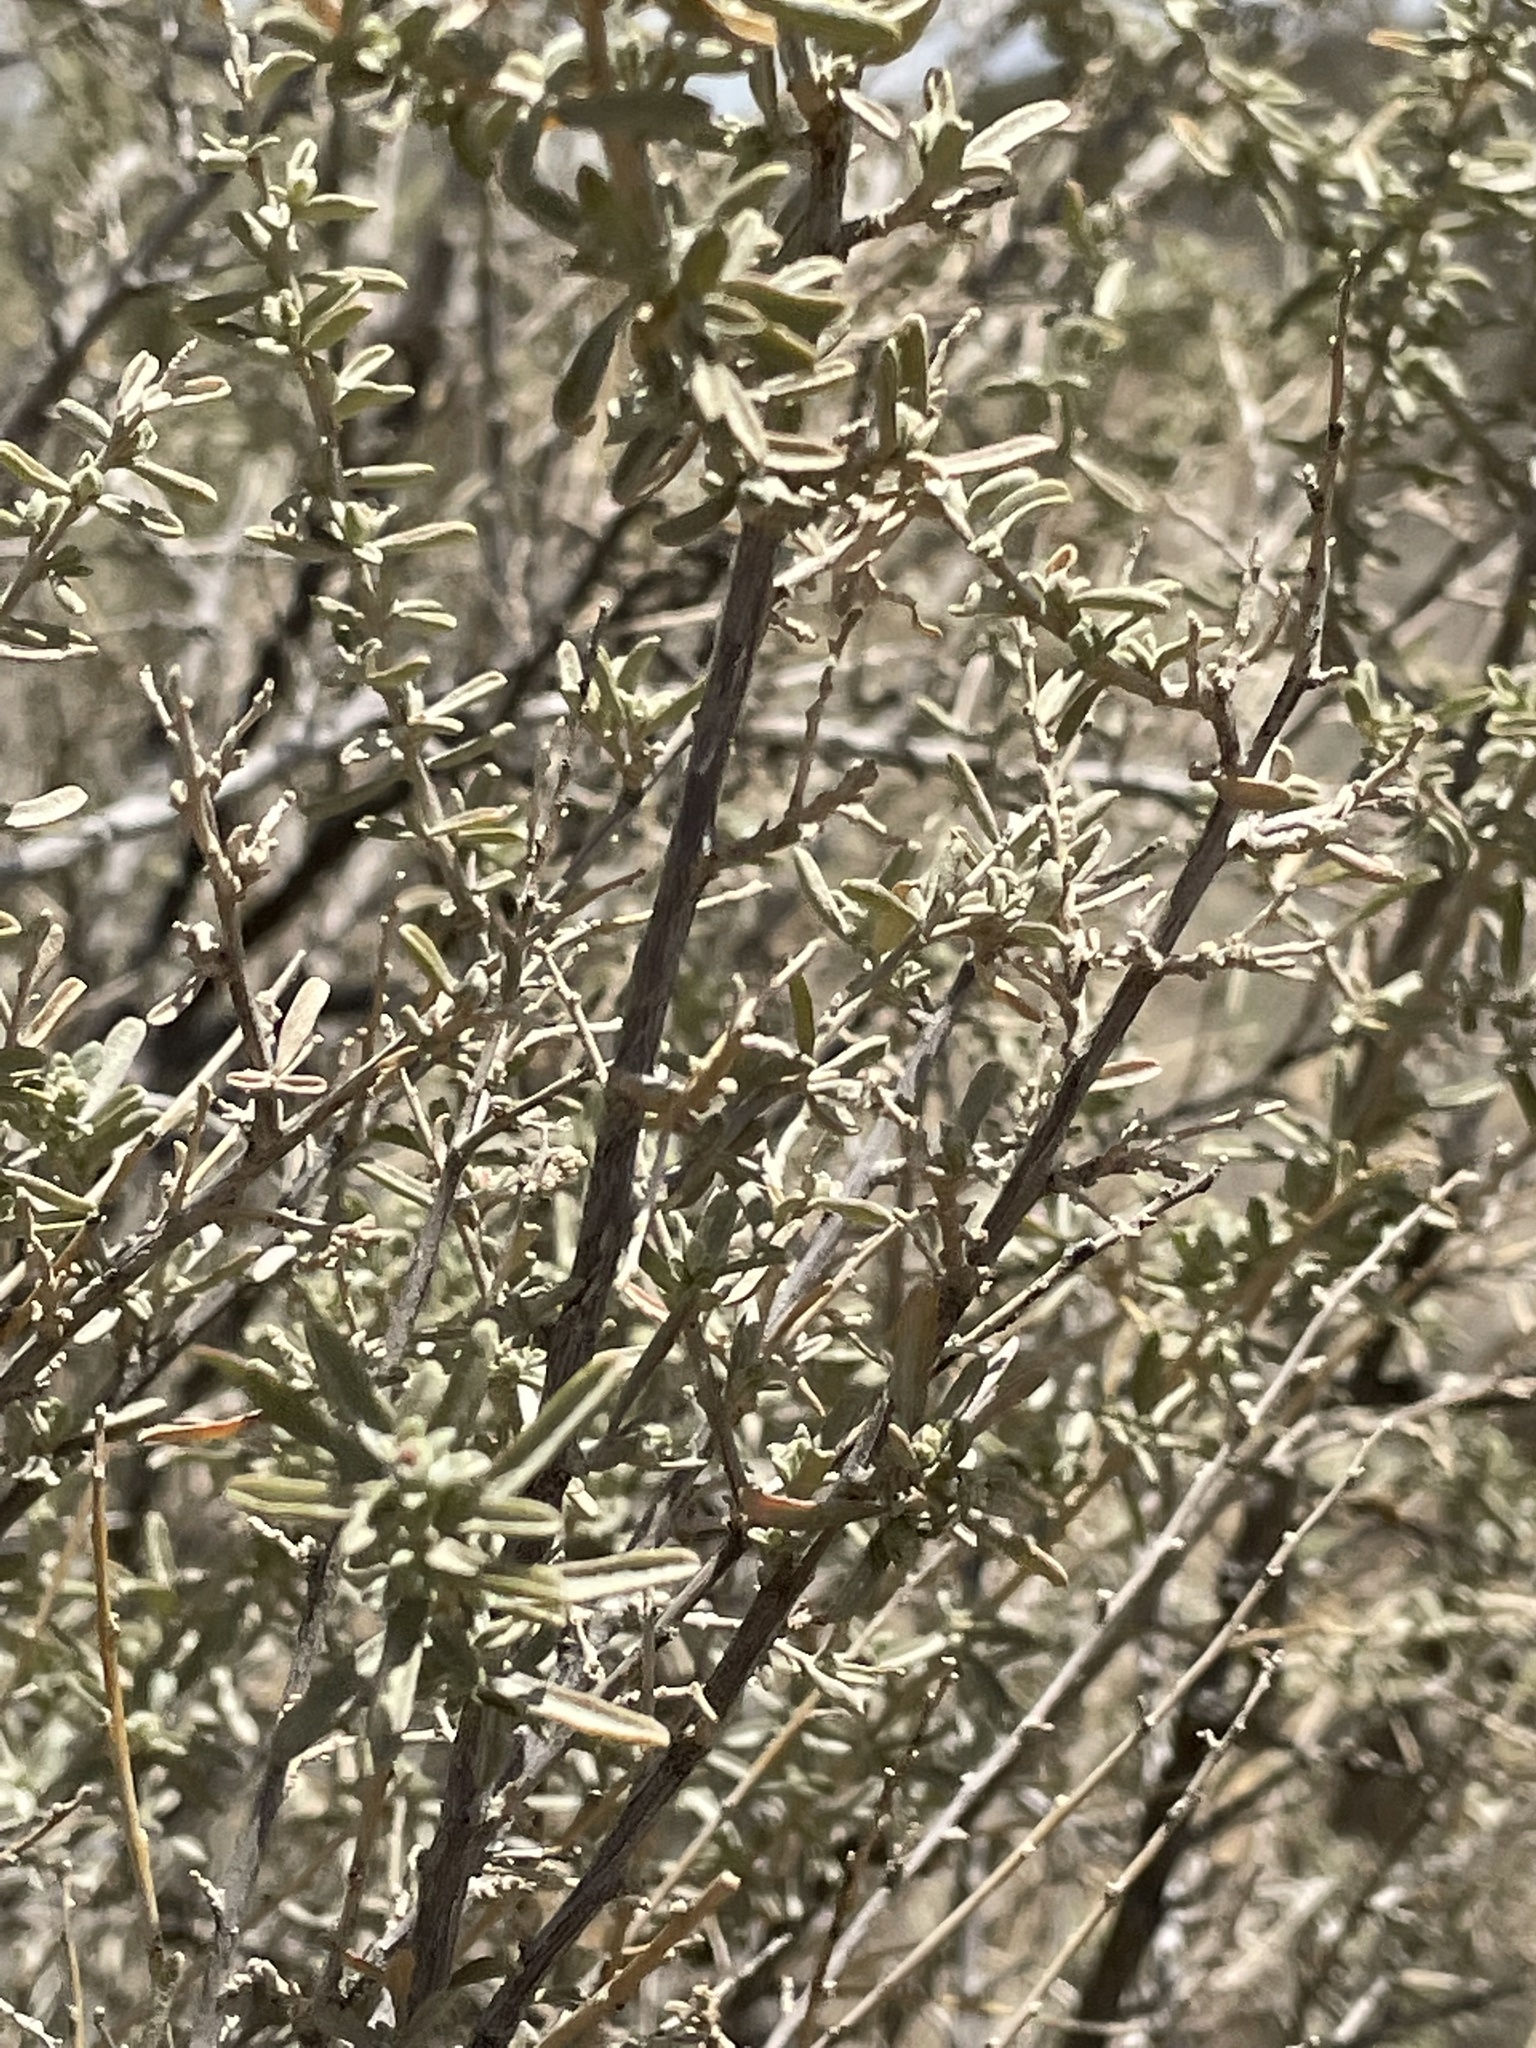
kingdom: Plantae
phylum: Tracheophyta
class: Magnoliopsida
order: Caryophyllales
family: Amaranthaceae
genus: Atriplex
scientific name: Atriplex canescens
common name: Four-wing saltbush
